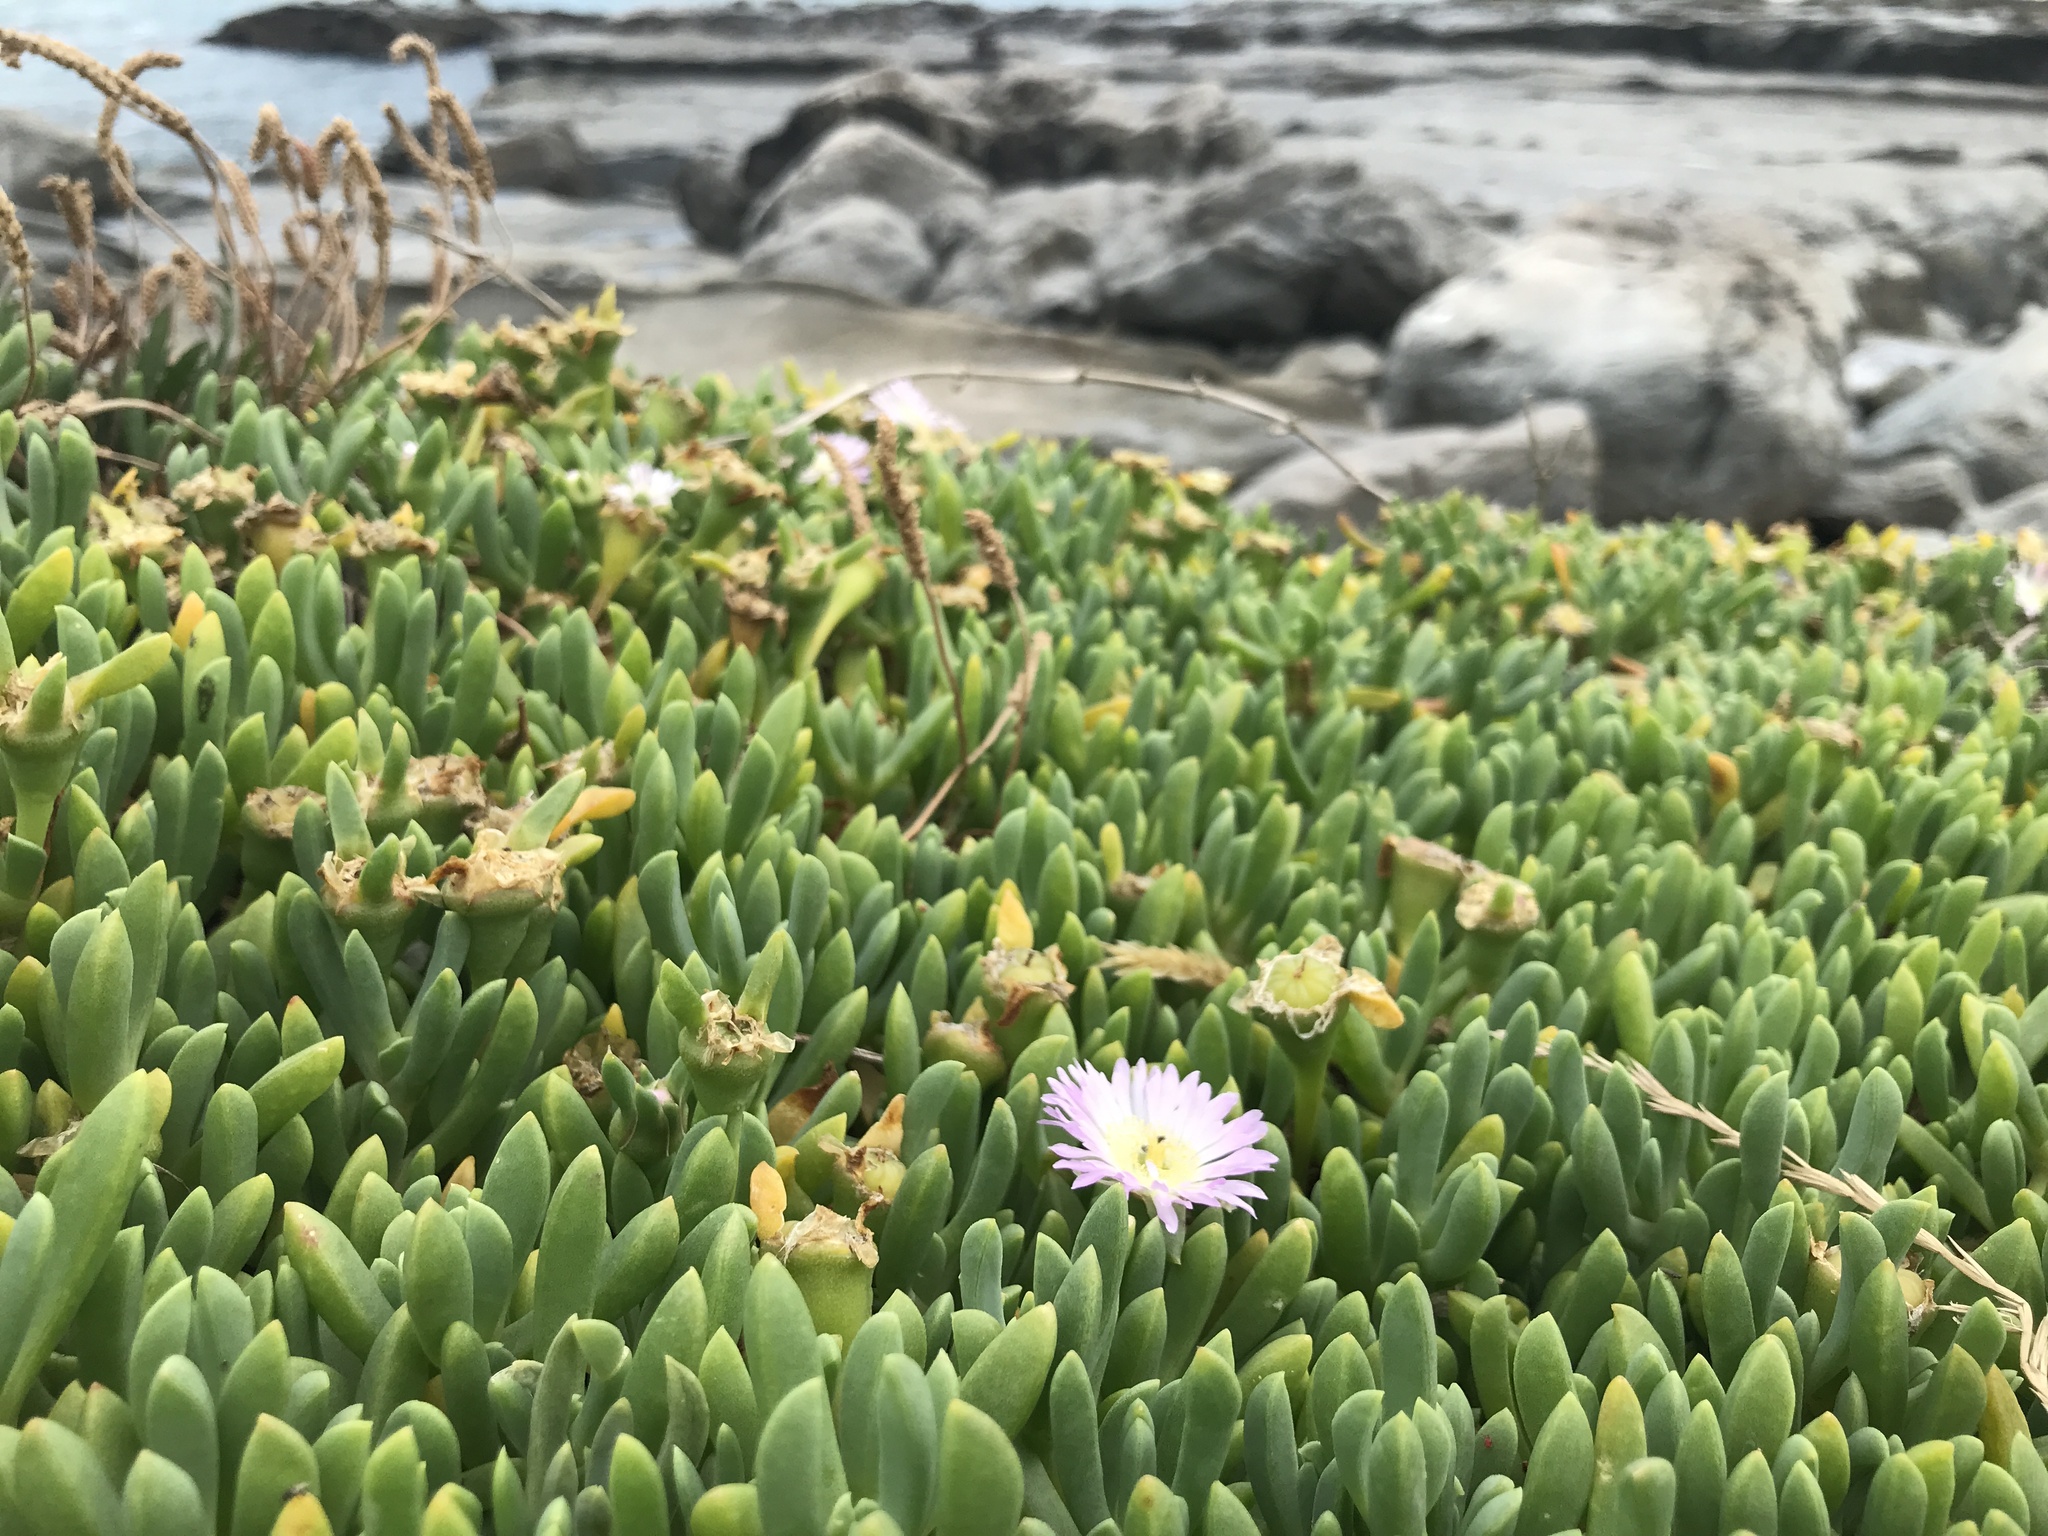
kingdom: Plantae
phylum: Tracheophyta
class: Magnoliopsida
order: Caryophyllales
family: Aizoaceae
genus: Disphyma
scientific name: Disphyma australe
